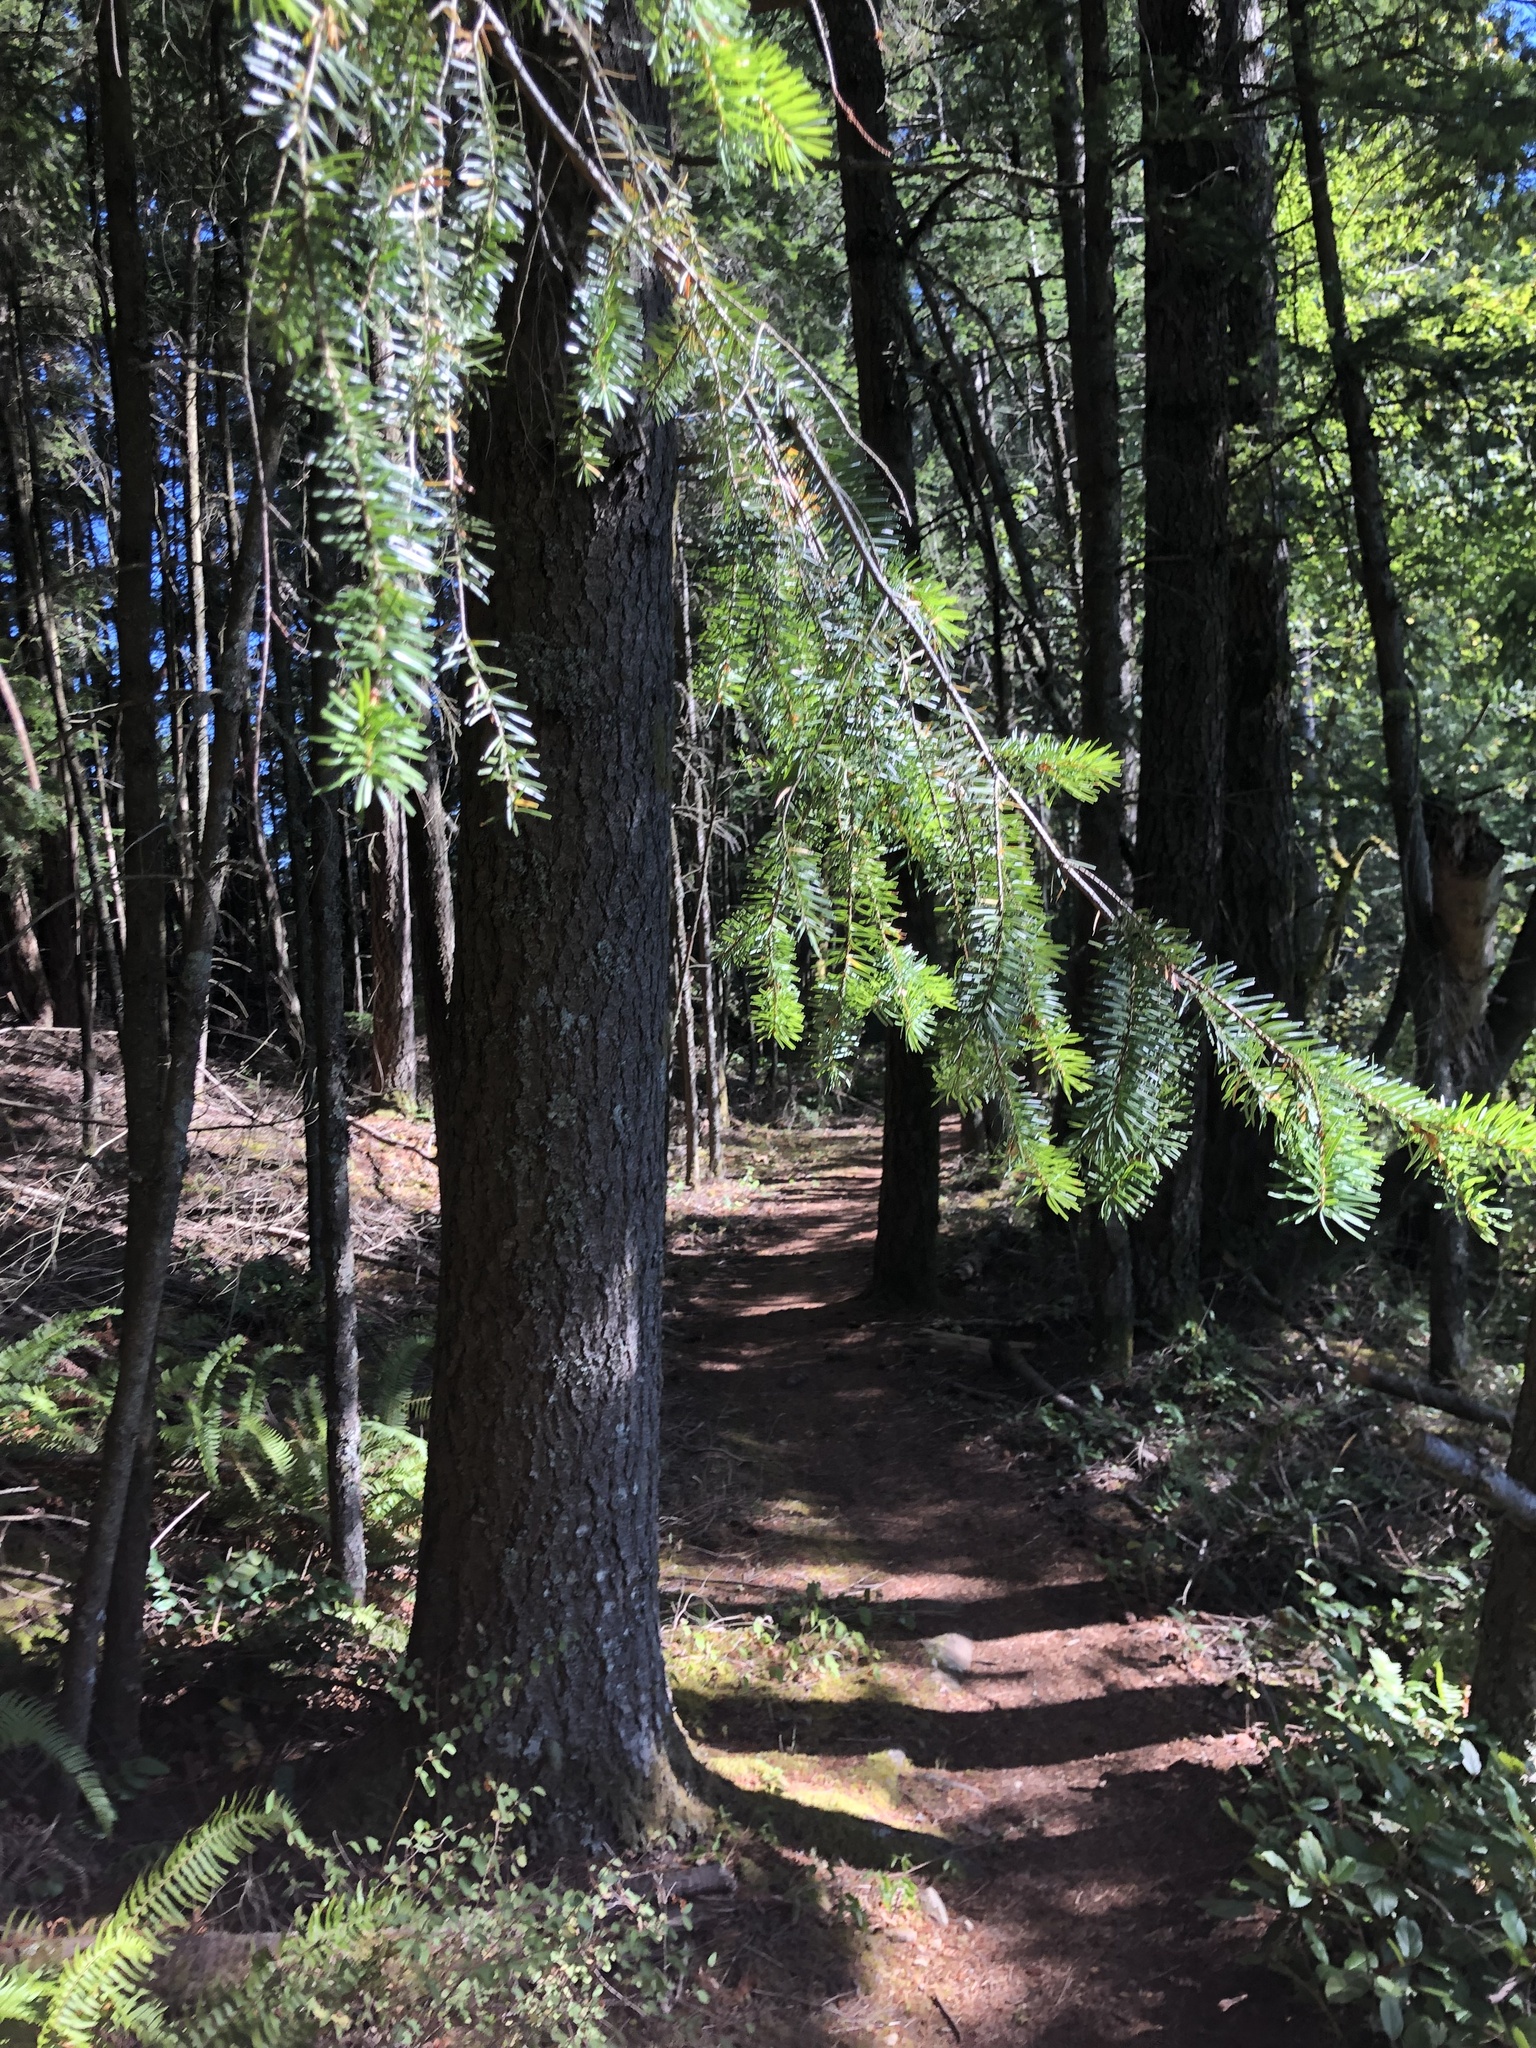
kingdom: Plantae
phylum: Tracheophyta
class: Pinopsida
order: Pinales
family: Pinaceae
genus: Pseudotsuga
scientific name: Pseudotsuga menziesii
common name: Douglas fir
